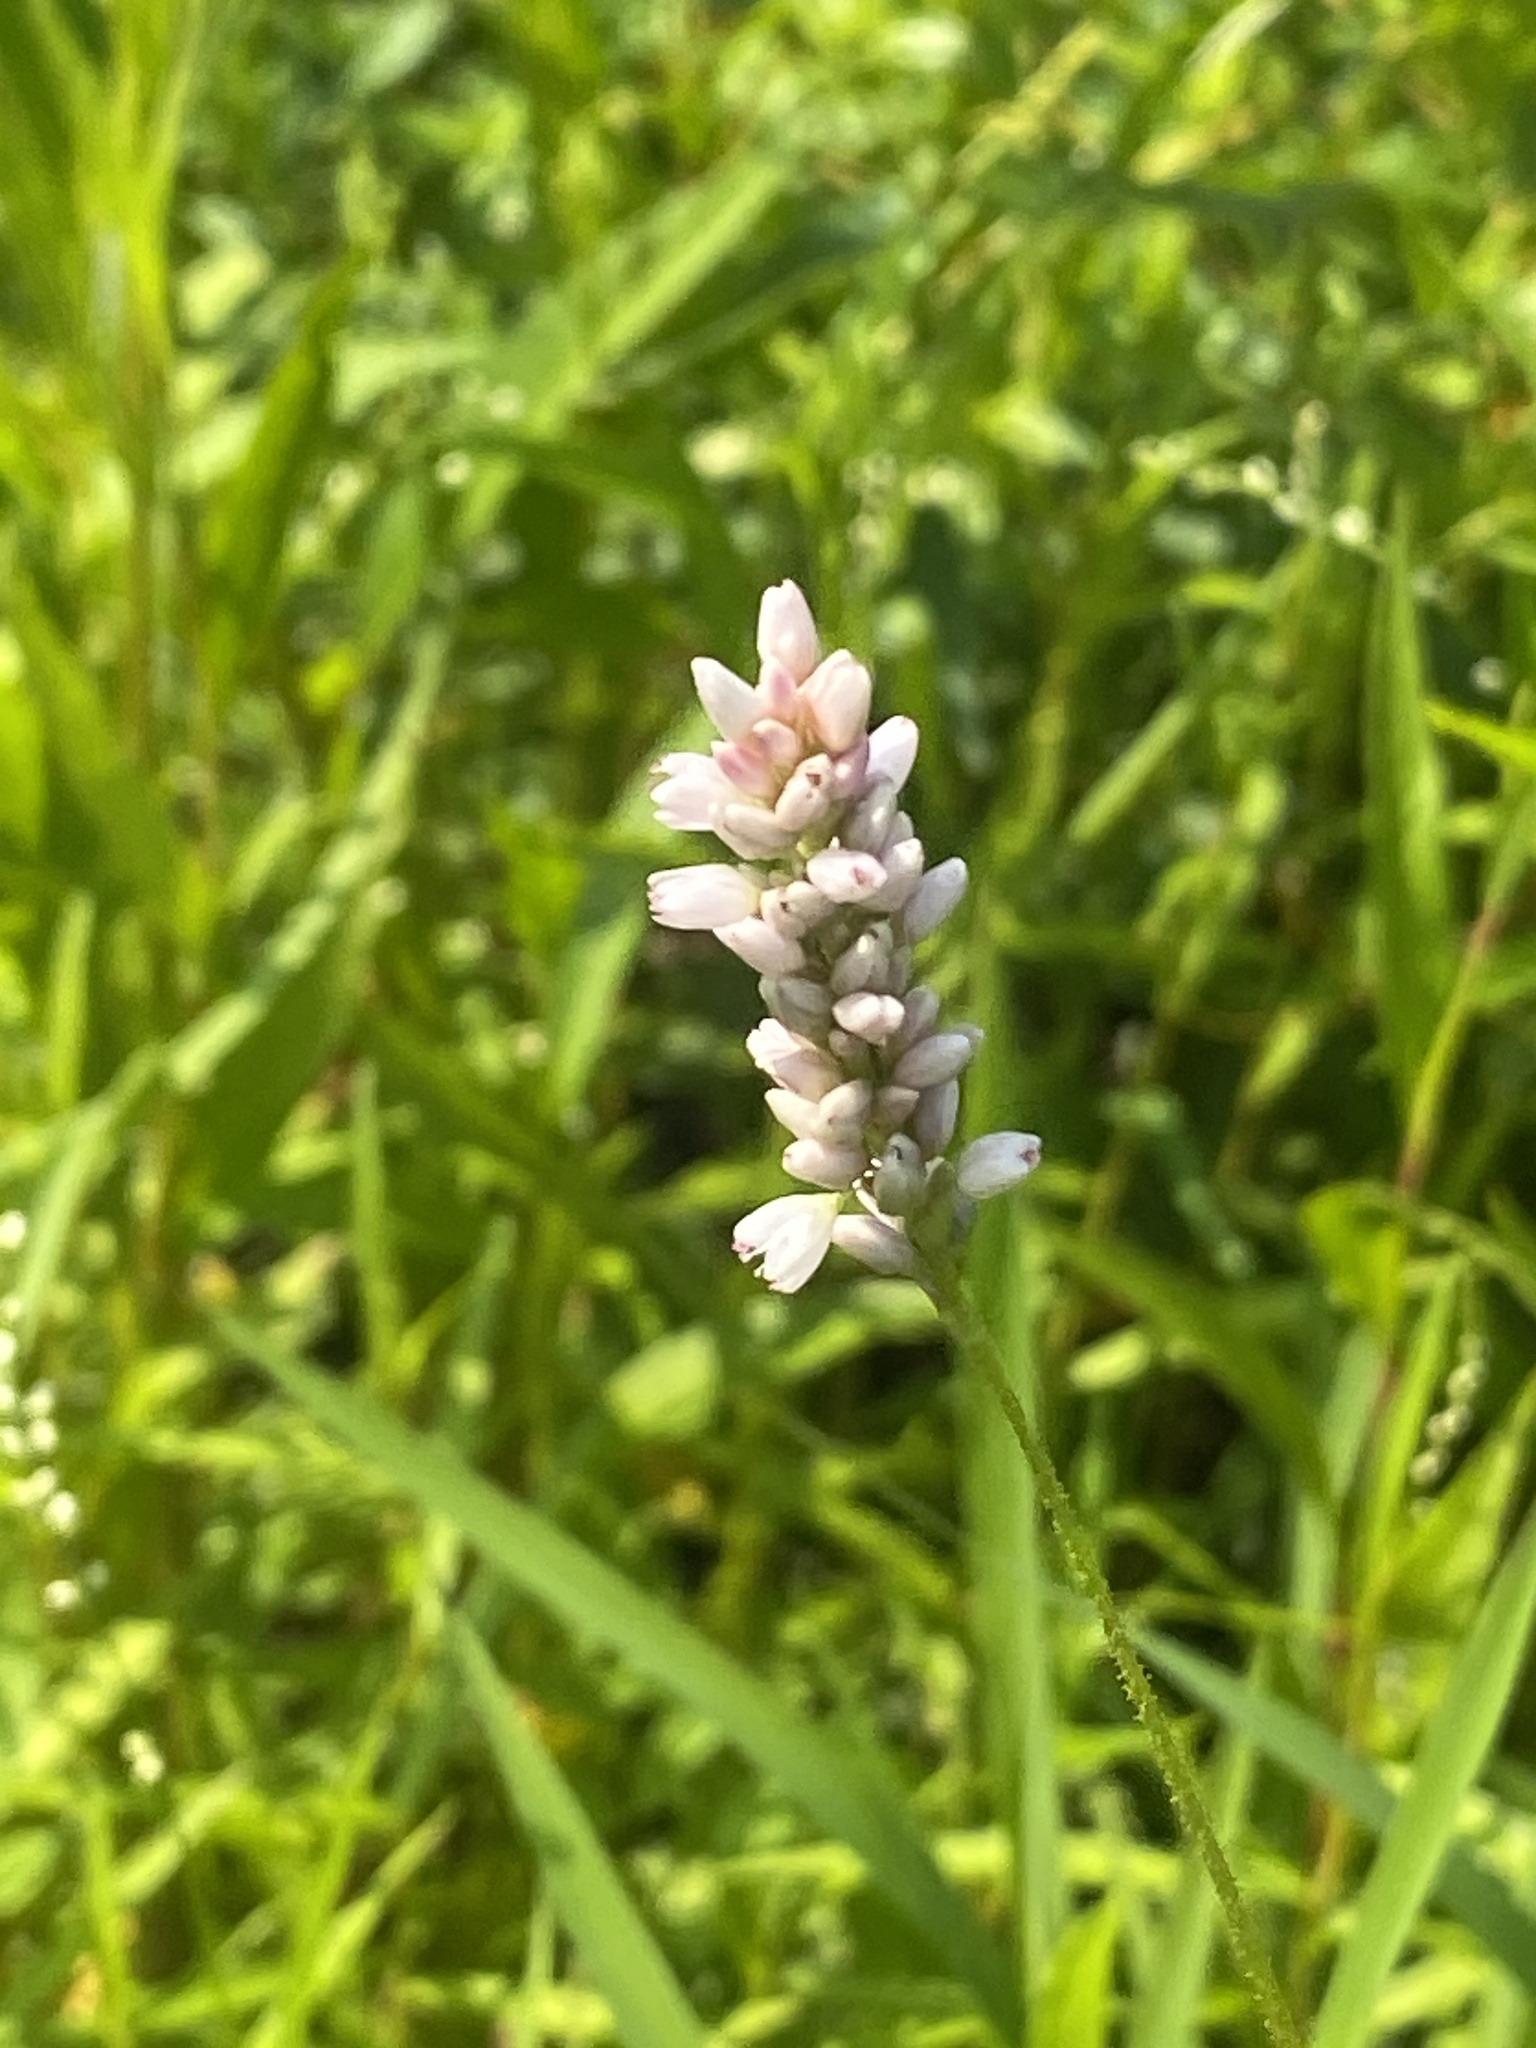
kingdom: Plantae
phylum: Tracheophyta
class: Magnoliopsida
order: Caryophyllales
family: Polygonaceae
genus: Persicaria
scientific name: Persicaria pensylvanica
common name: Pinkweed
